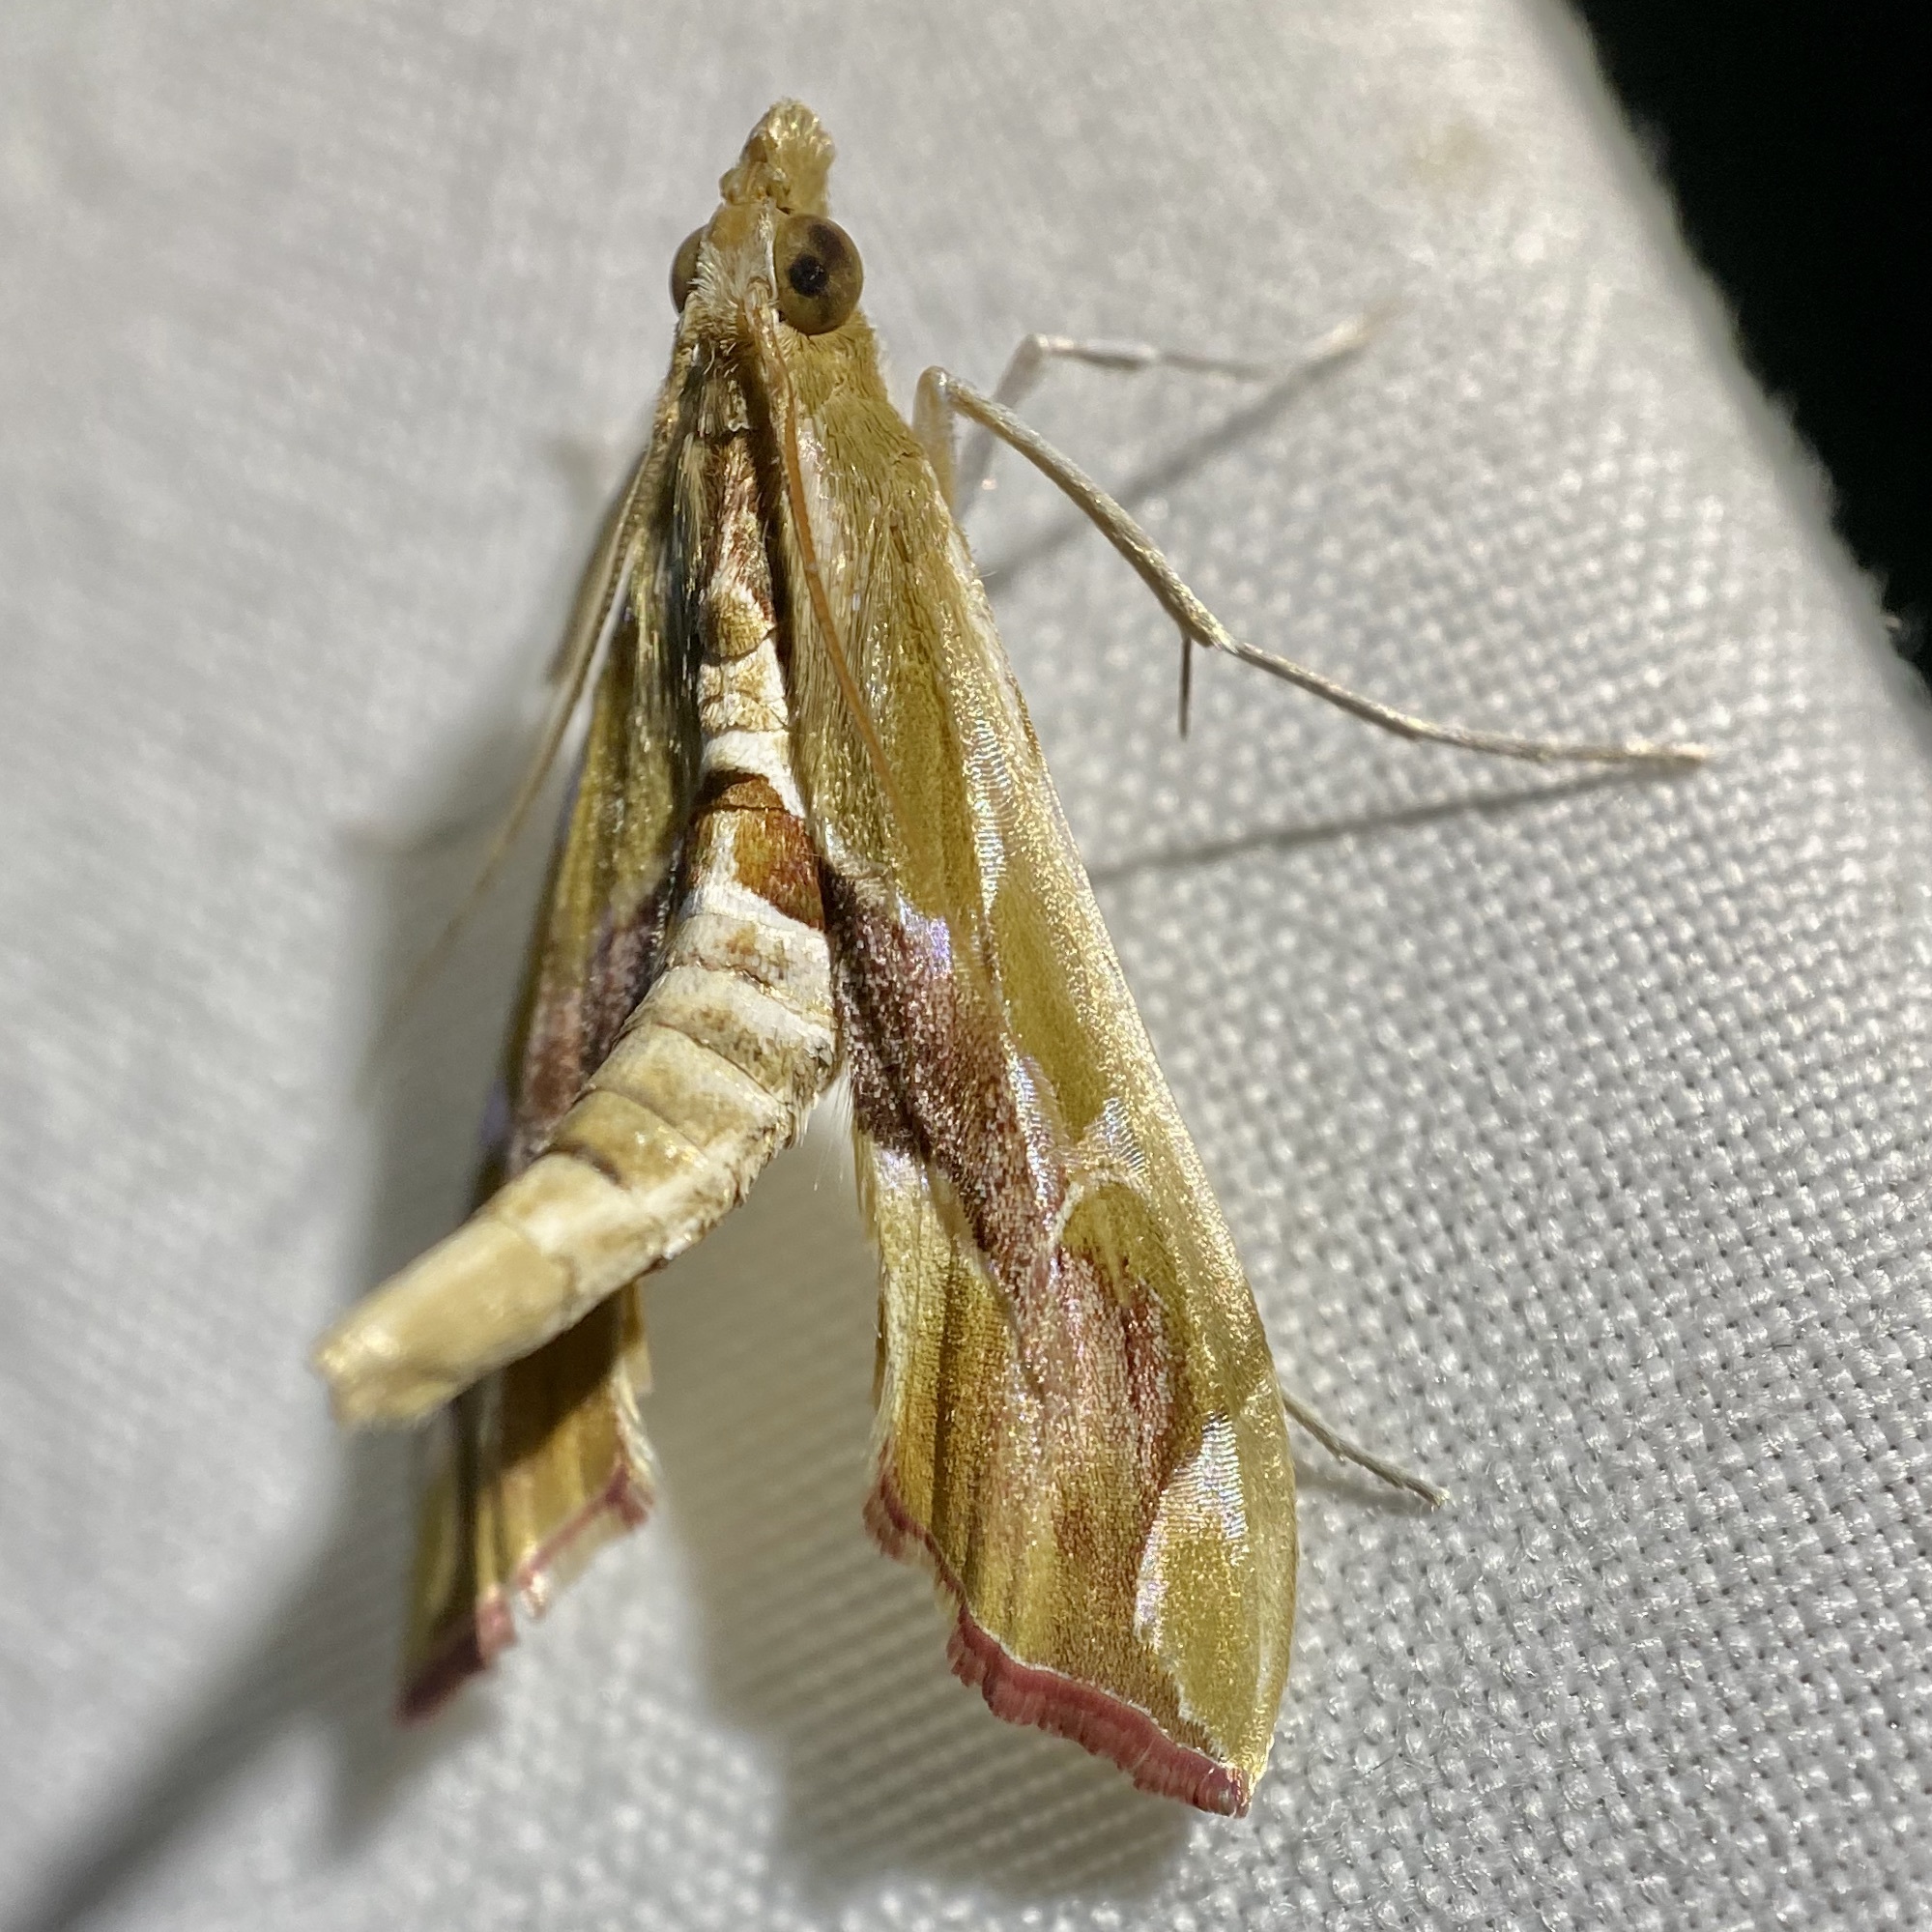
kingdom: Animalia
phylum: Arthropoda
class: Insecta
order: Lepidoptera
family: Crambidae
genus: Agathodes
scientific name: Agathodes monstralis
